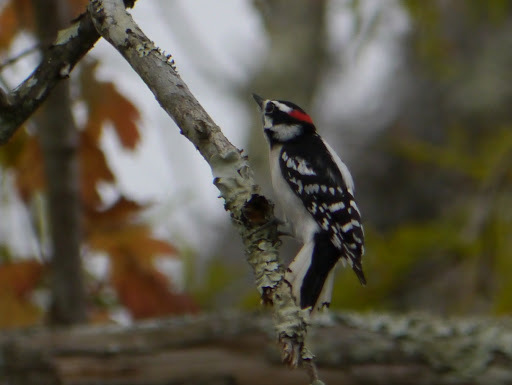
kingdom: Animalia
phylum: Chordata
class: Aves
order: Piciformes
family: Picidae
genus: Dryobates
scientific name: Dryobates pubescens
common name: Downy woodpecker
